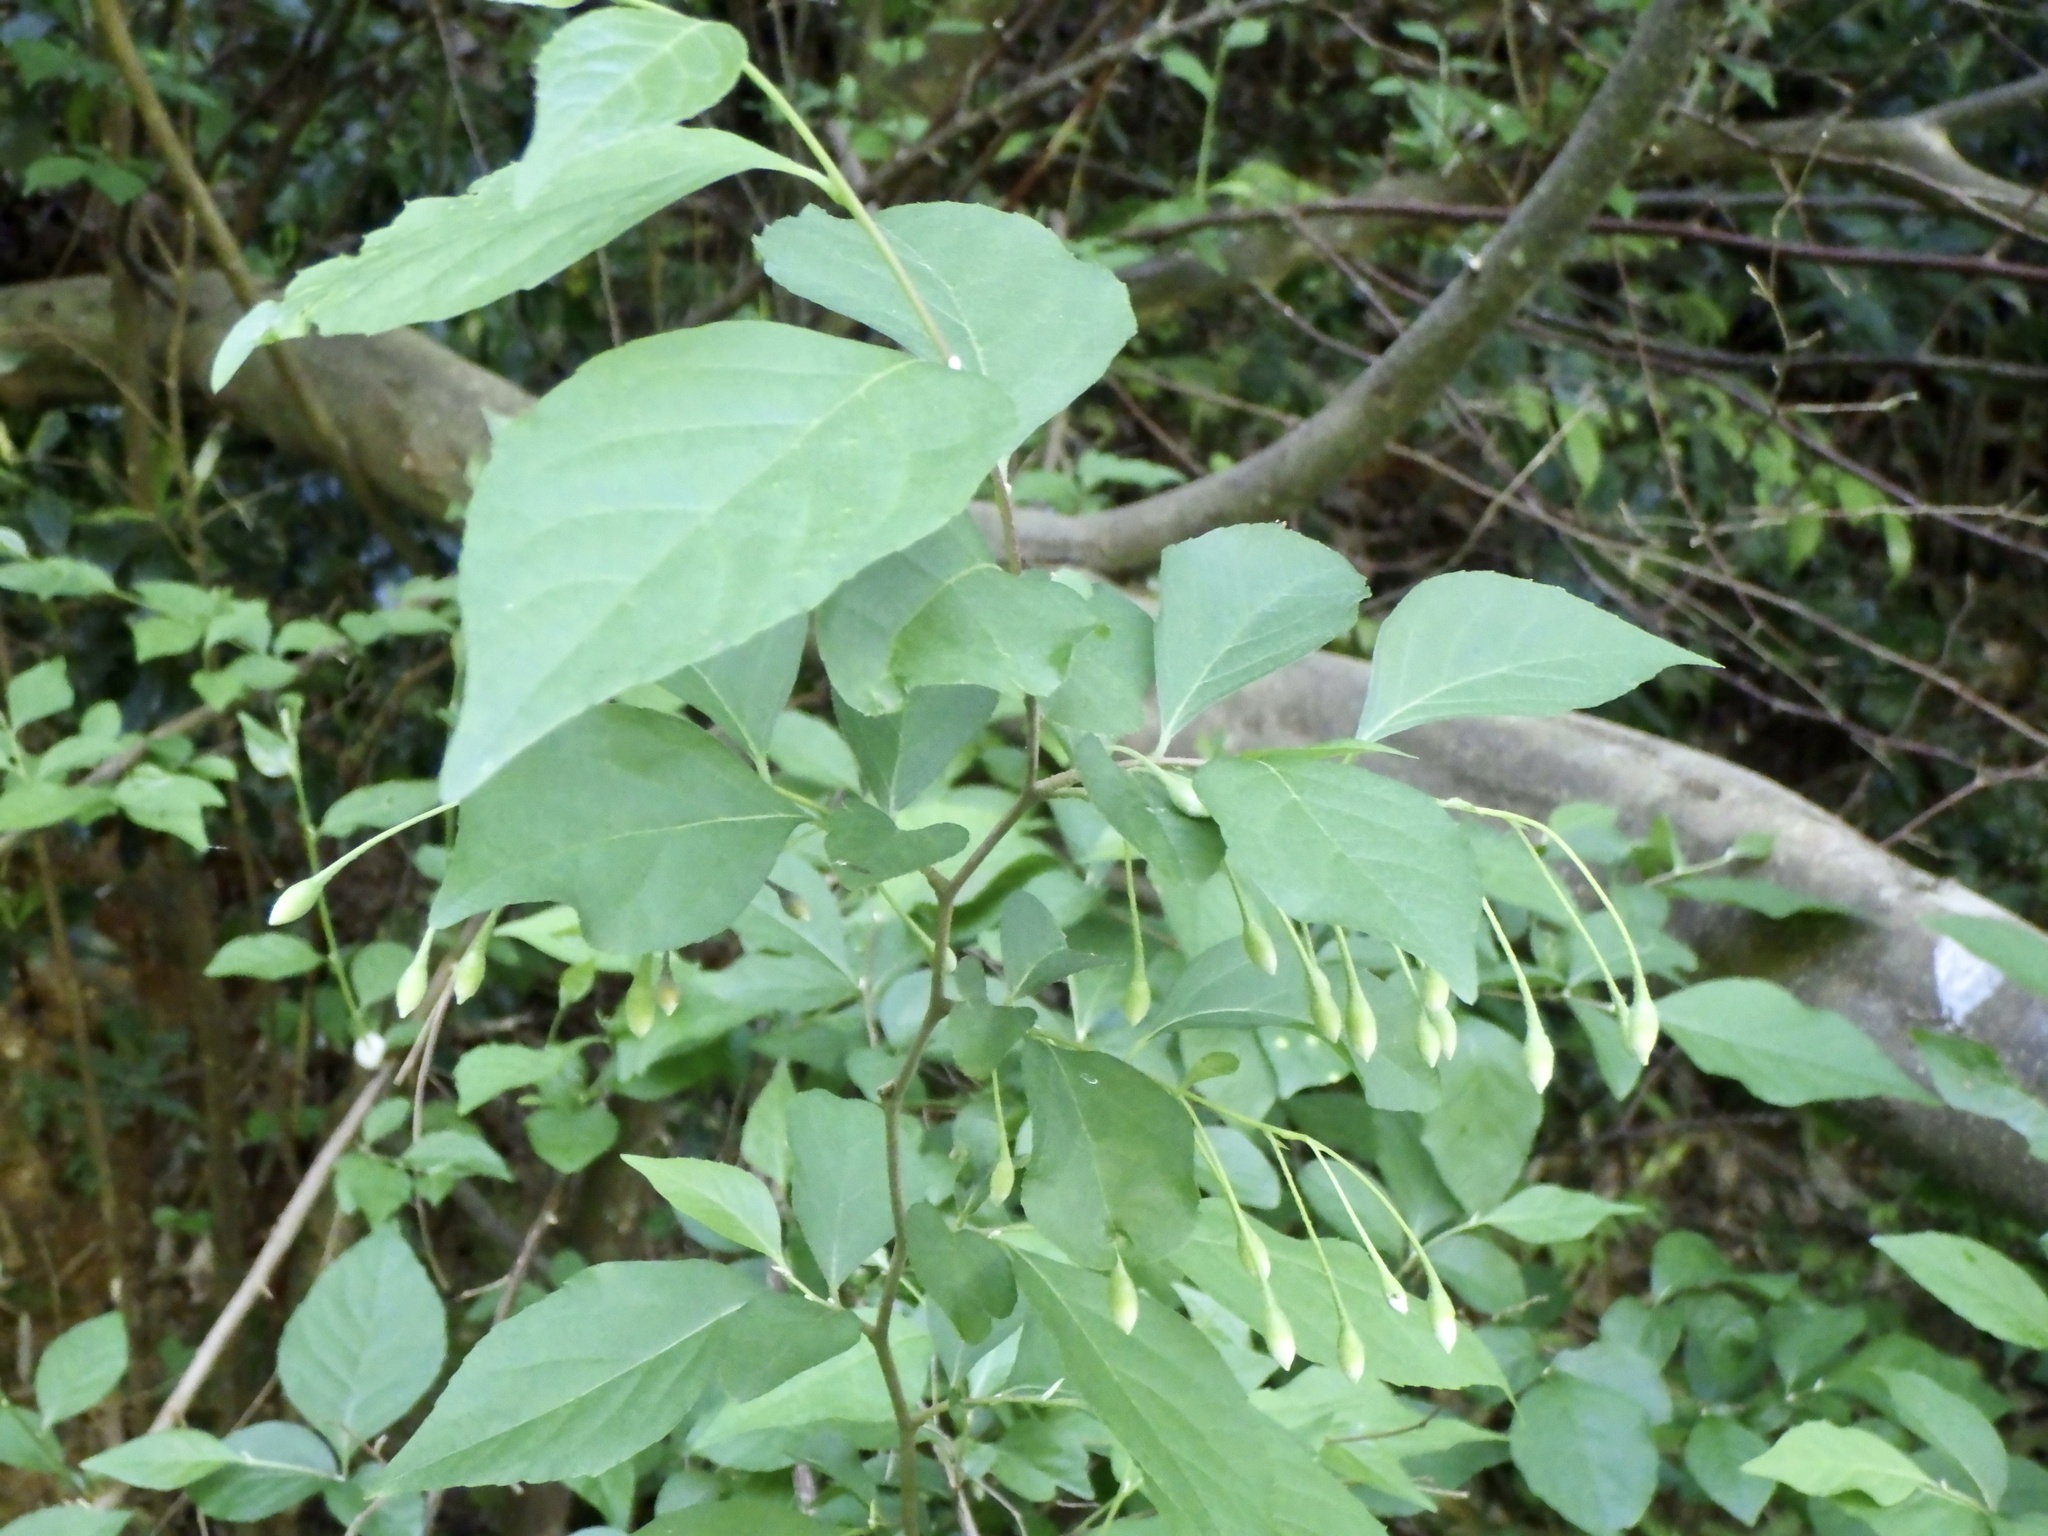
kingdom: Plantae
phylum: Tracheophyta
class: Magnoliopsida
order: Ericales
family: Styracaceae
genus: Styrax
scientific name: Styrax japonicus
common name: Japanese snowbell
